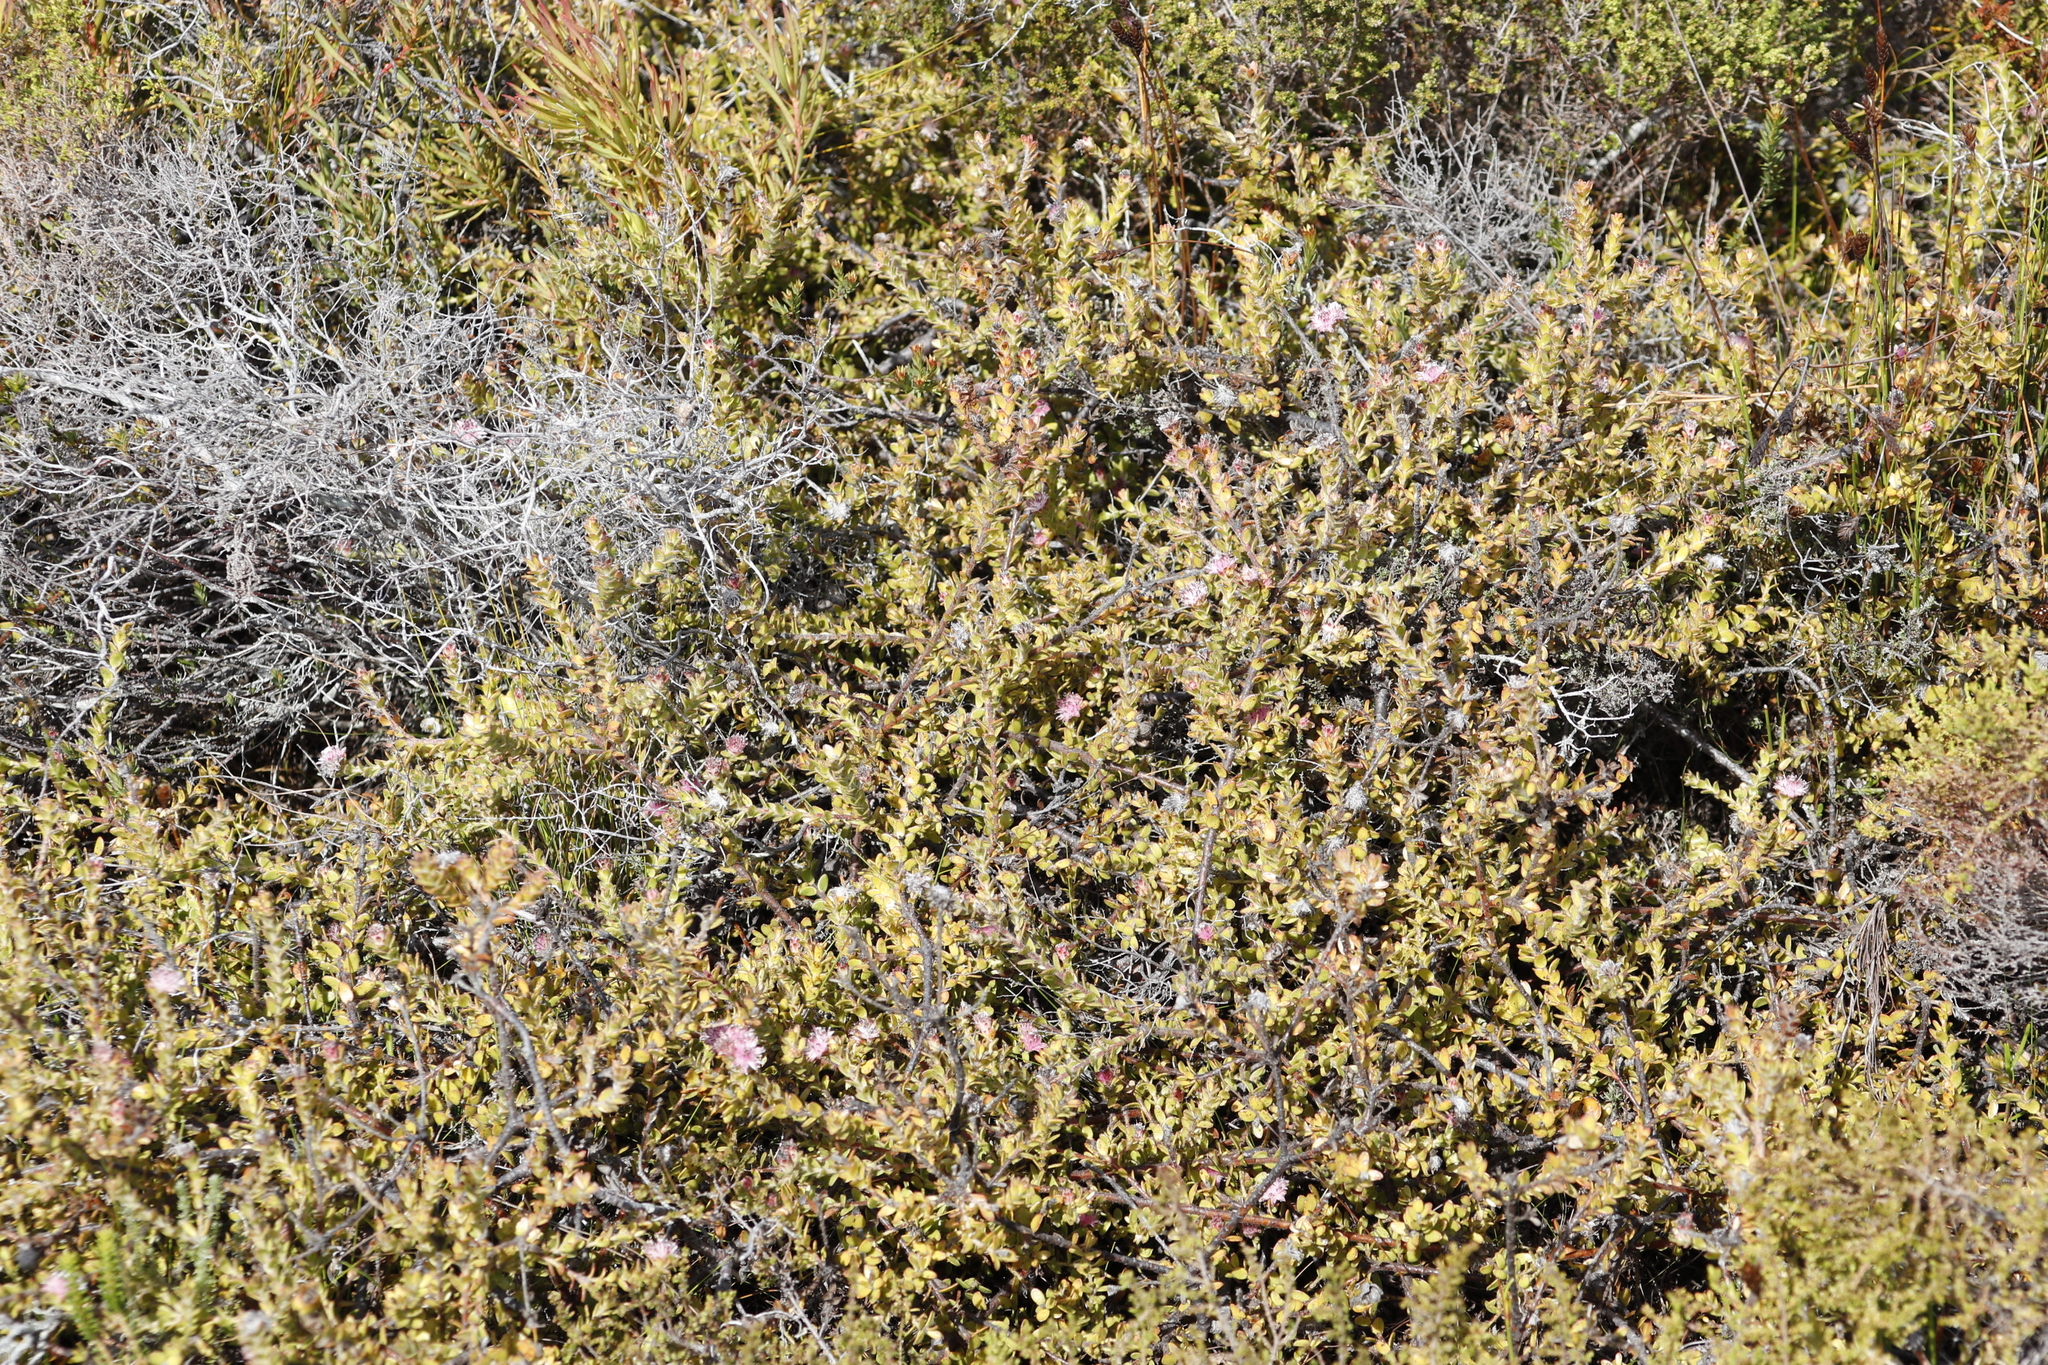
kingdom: Plantae
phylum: Tracheophyta
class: Magnoliopsida
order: Proteales
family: Proteaceae
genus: Diastella
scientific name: Diastella divaricata
